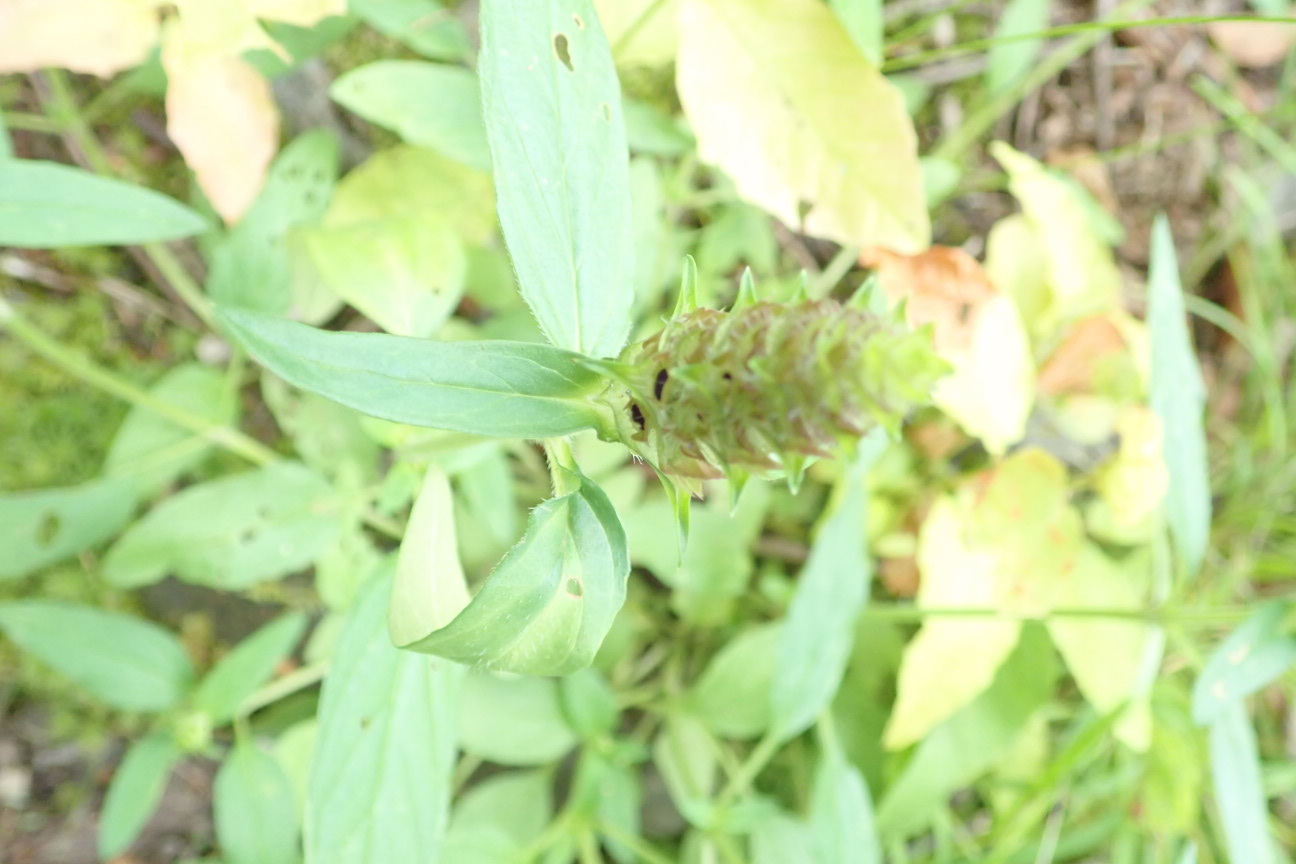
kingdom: Plantae
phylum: Tracheophyta
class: Magnoliopsida
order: Lamiales
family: Lamiaceae
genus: Prunella
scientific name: Prunella vulgaris
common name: Heal-all
